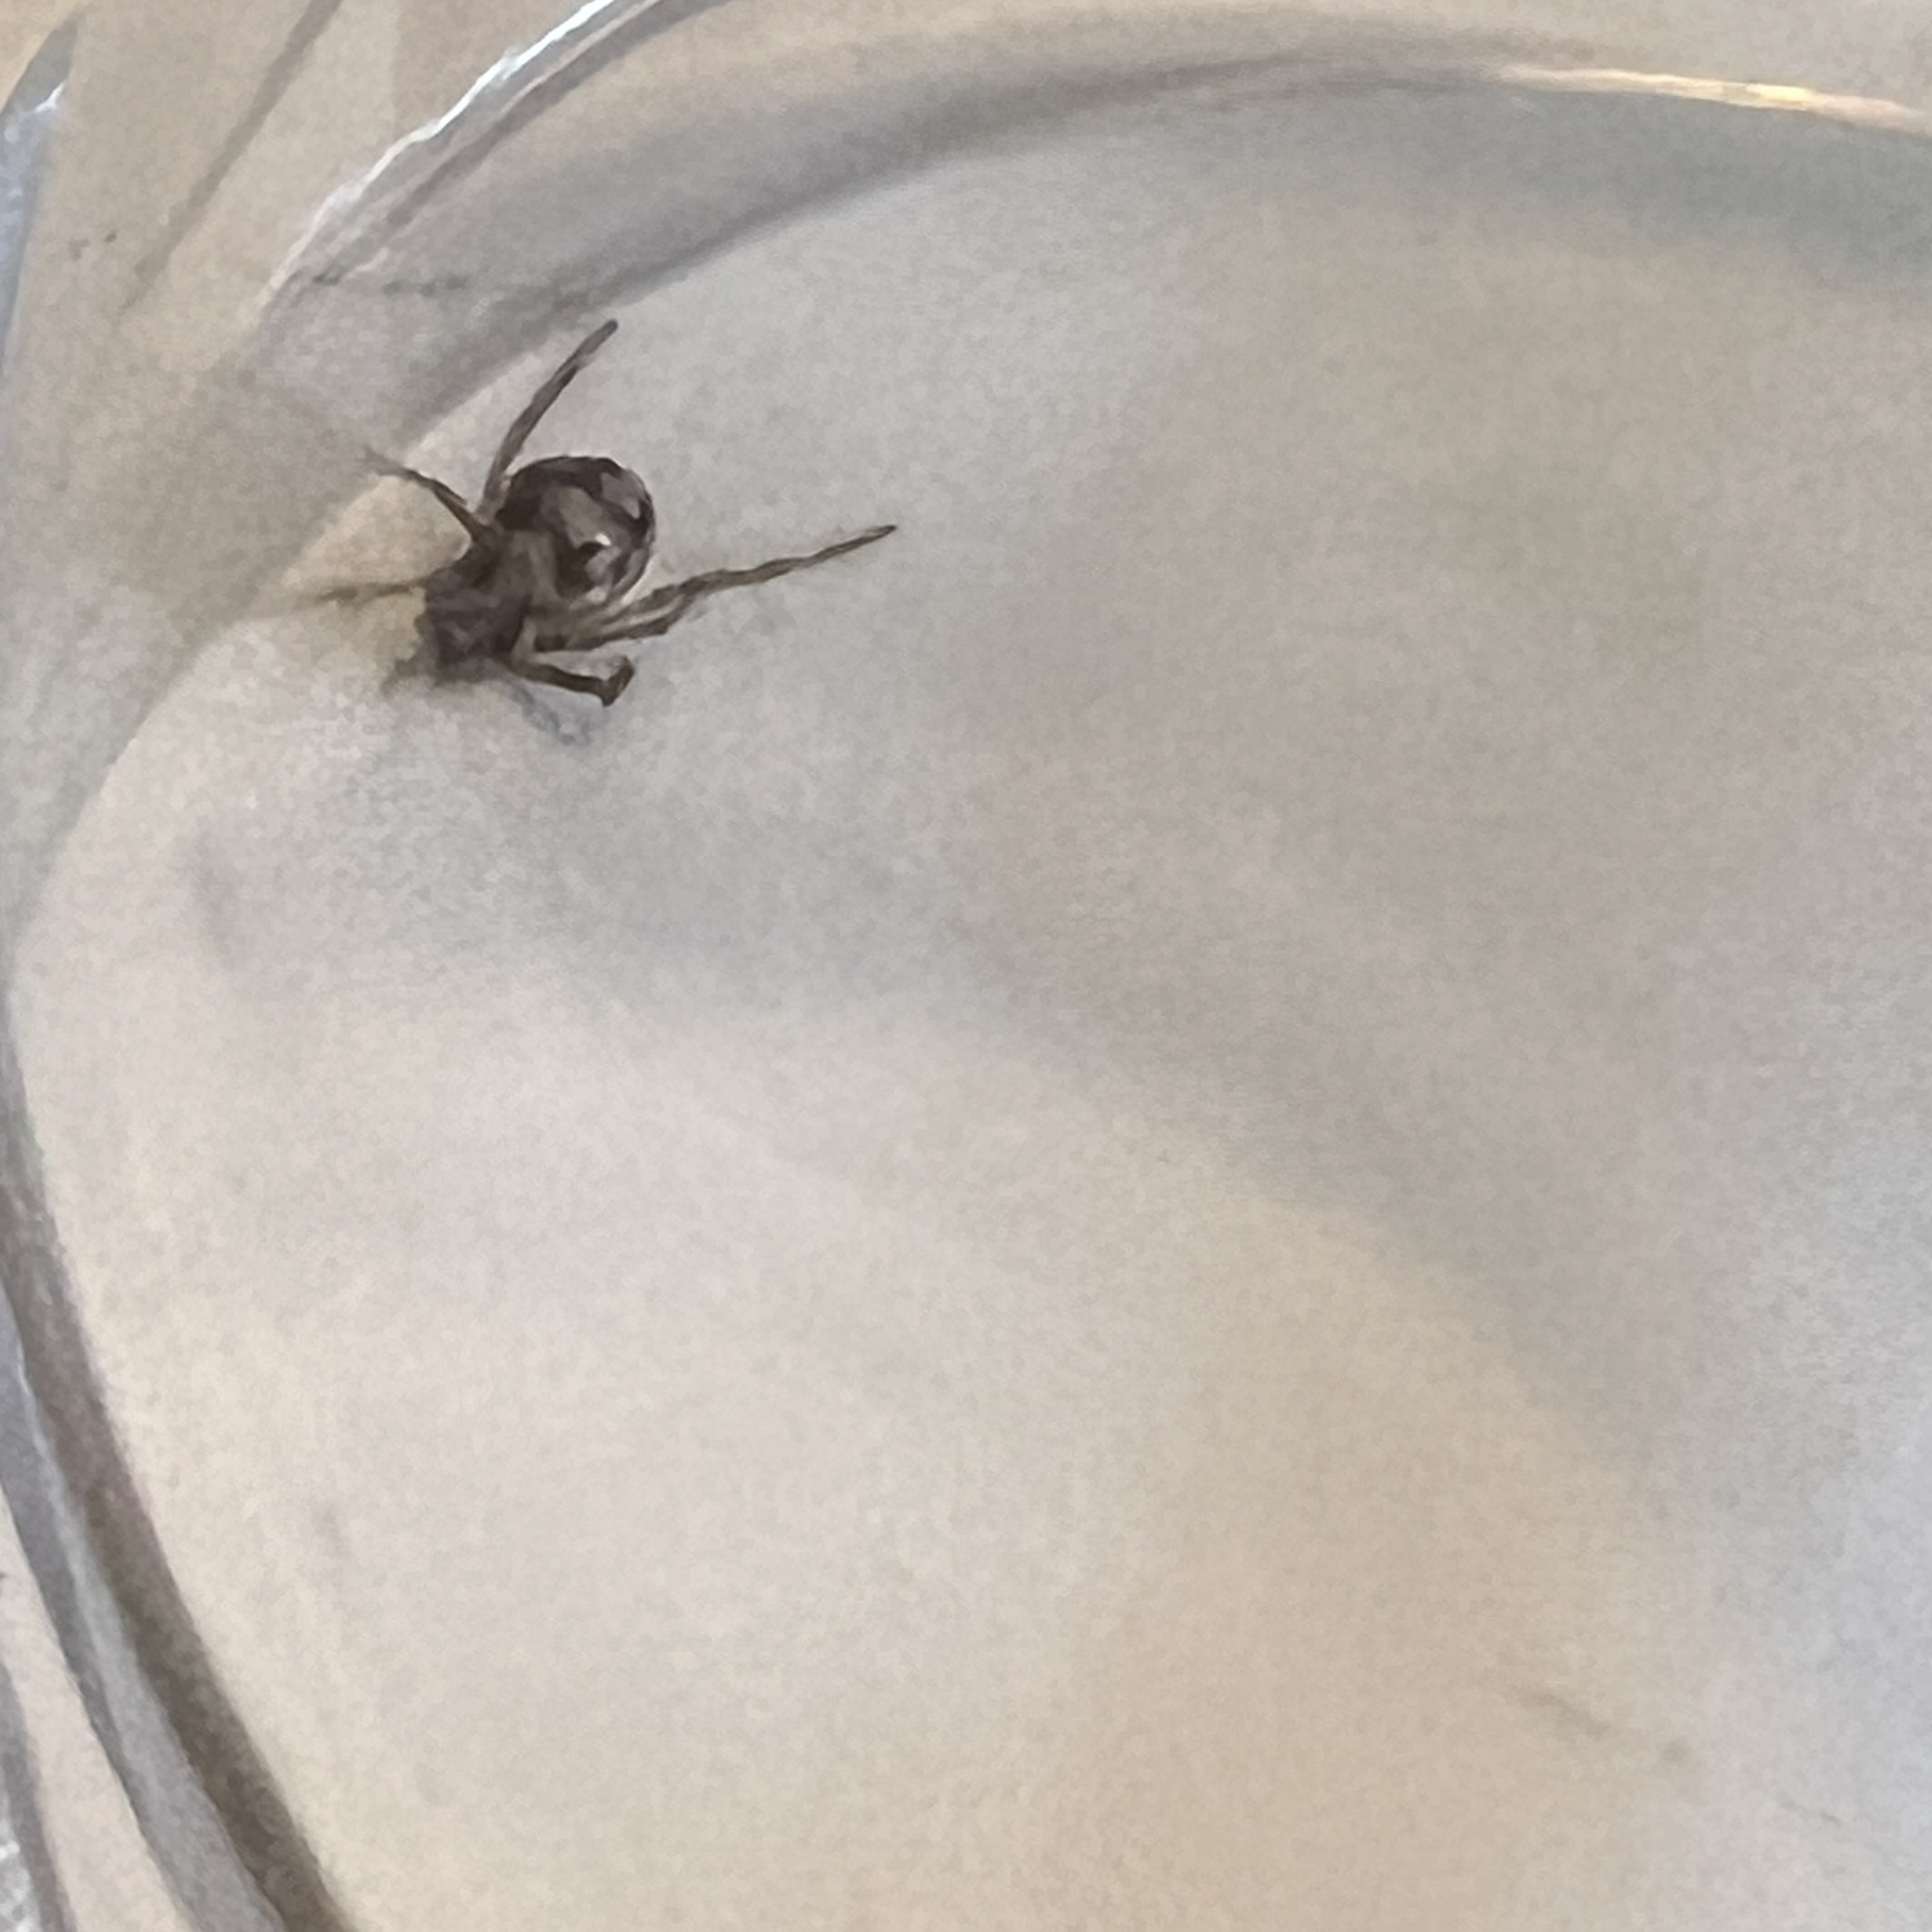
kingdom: Animalia
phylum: Arthropoda
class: Arachnida
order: Araneae
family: Theridiidae
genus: Steatoda
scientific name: Steatoda triangulosa
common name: Triangulate bud spider
